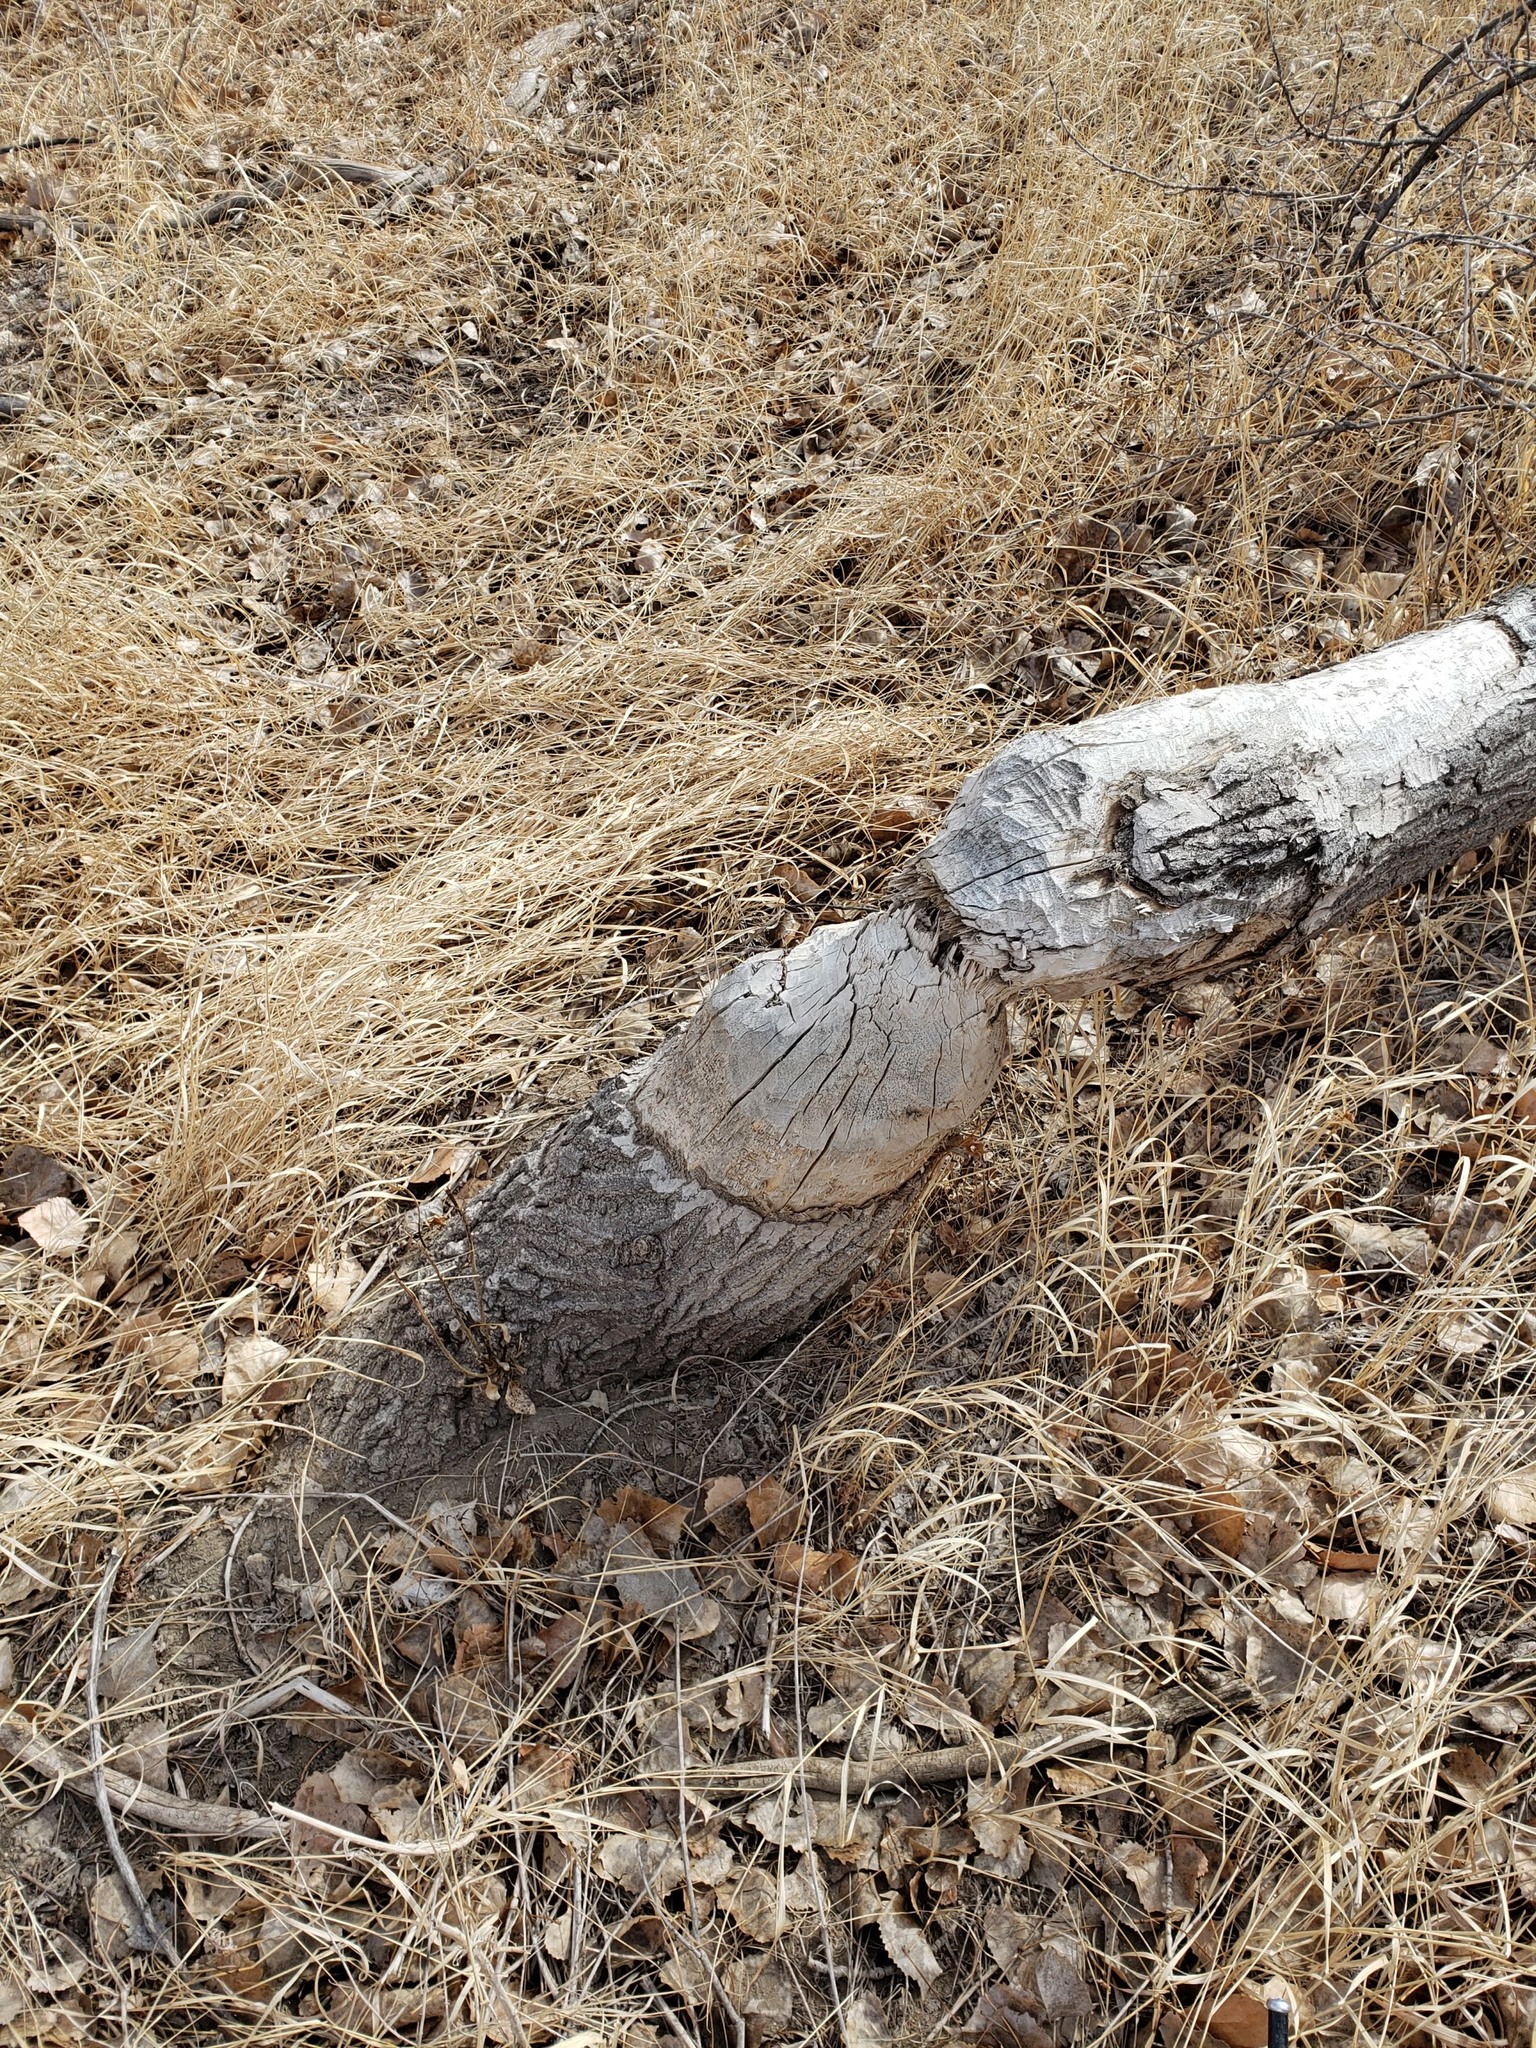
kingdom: Animalia
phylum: Chordata
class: Mammalia
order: Rodentia
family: Castoridae
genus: Castor
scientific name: Castor canadensis
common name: American beaver
